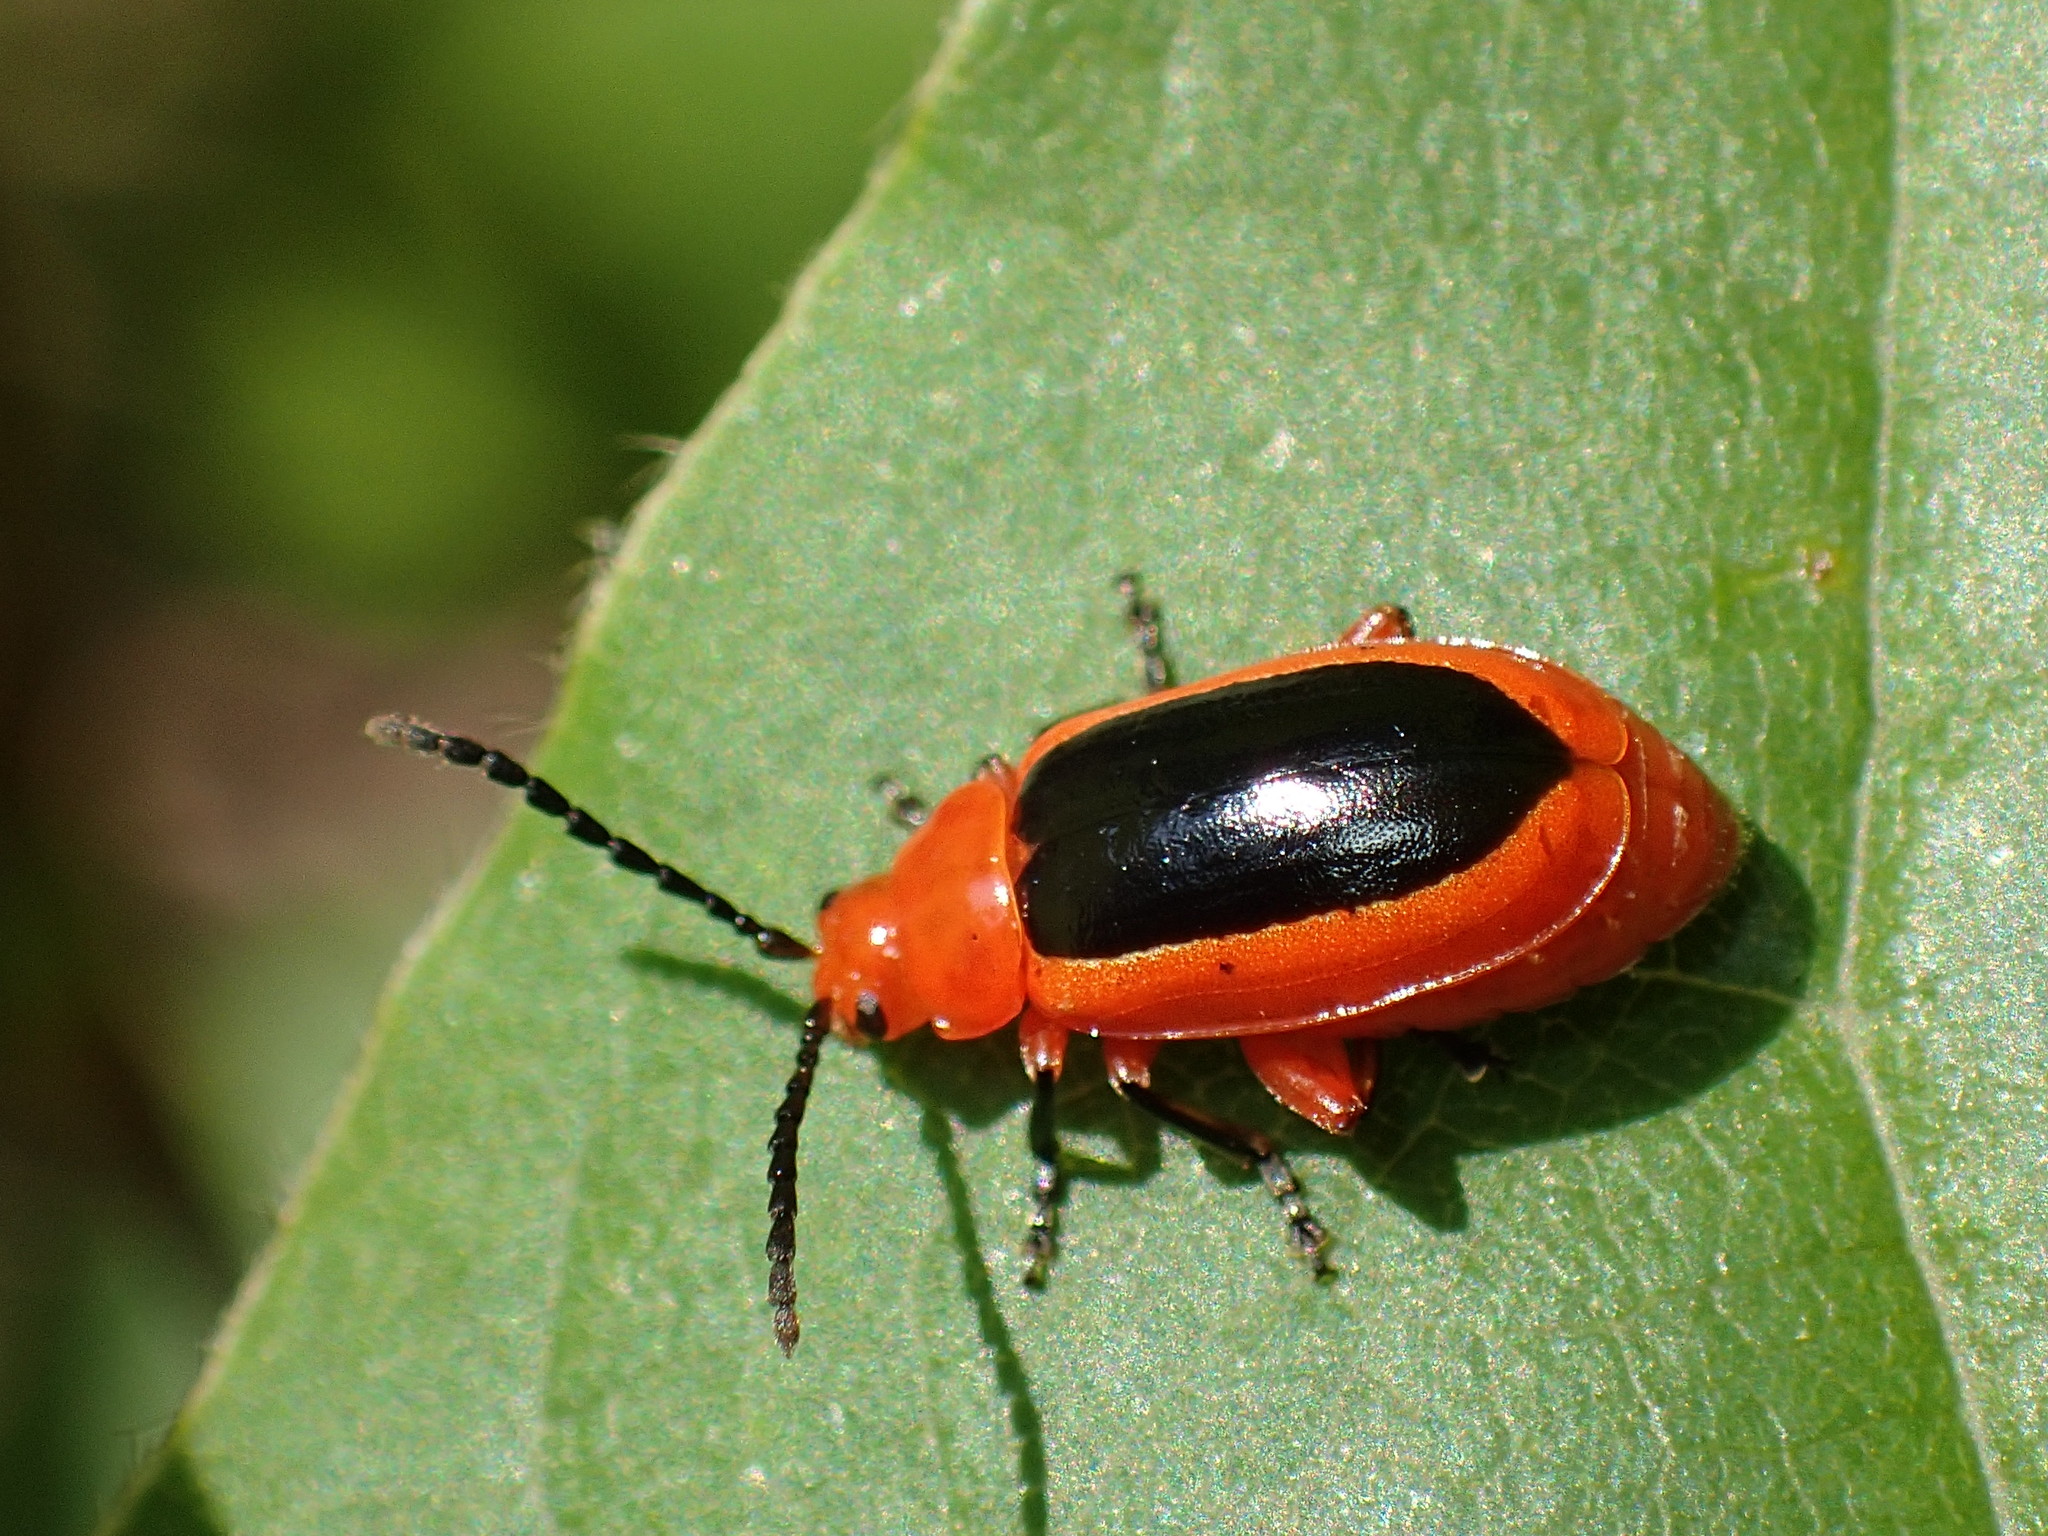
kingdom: Animalia
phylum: Arthropoda
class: Insecta
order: Coleoptera
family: Chrysomelidae
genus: Disonycha
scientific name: Disonycha discoidea
